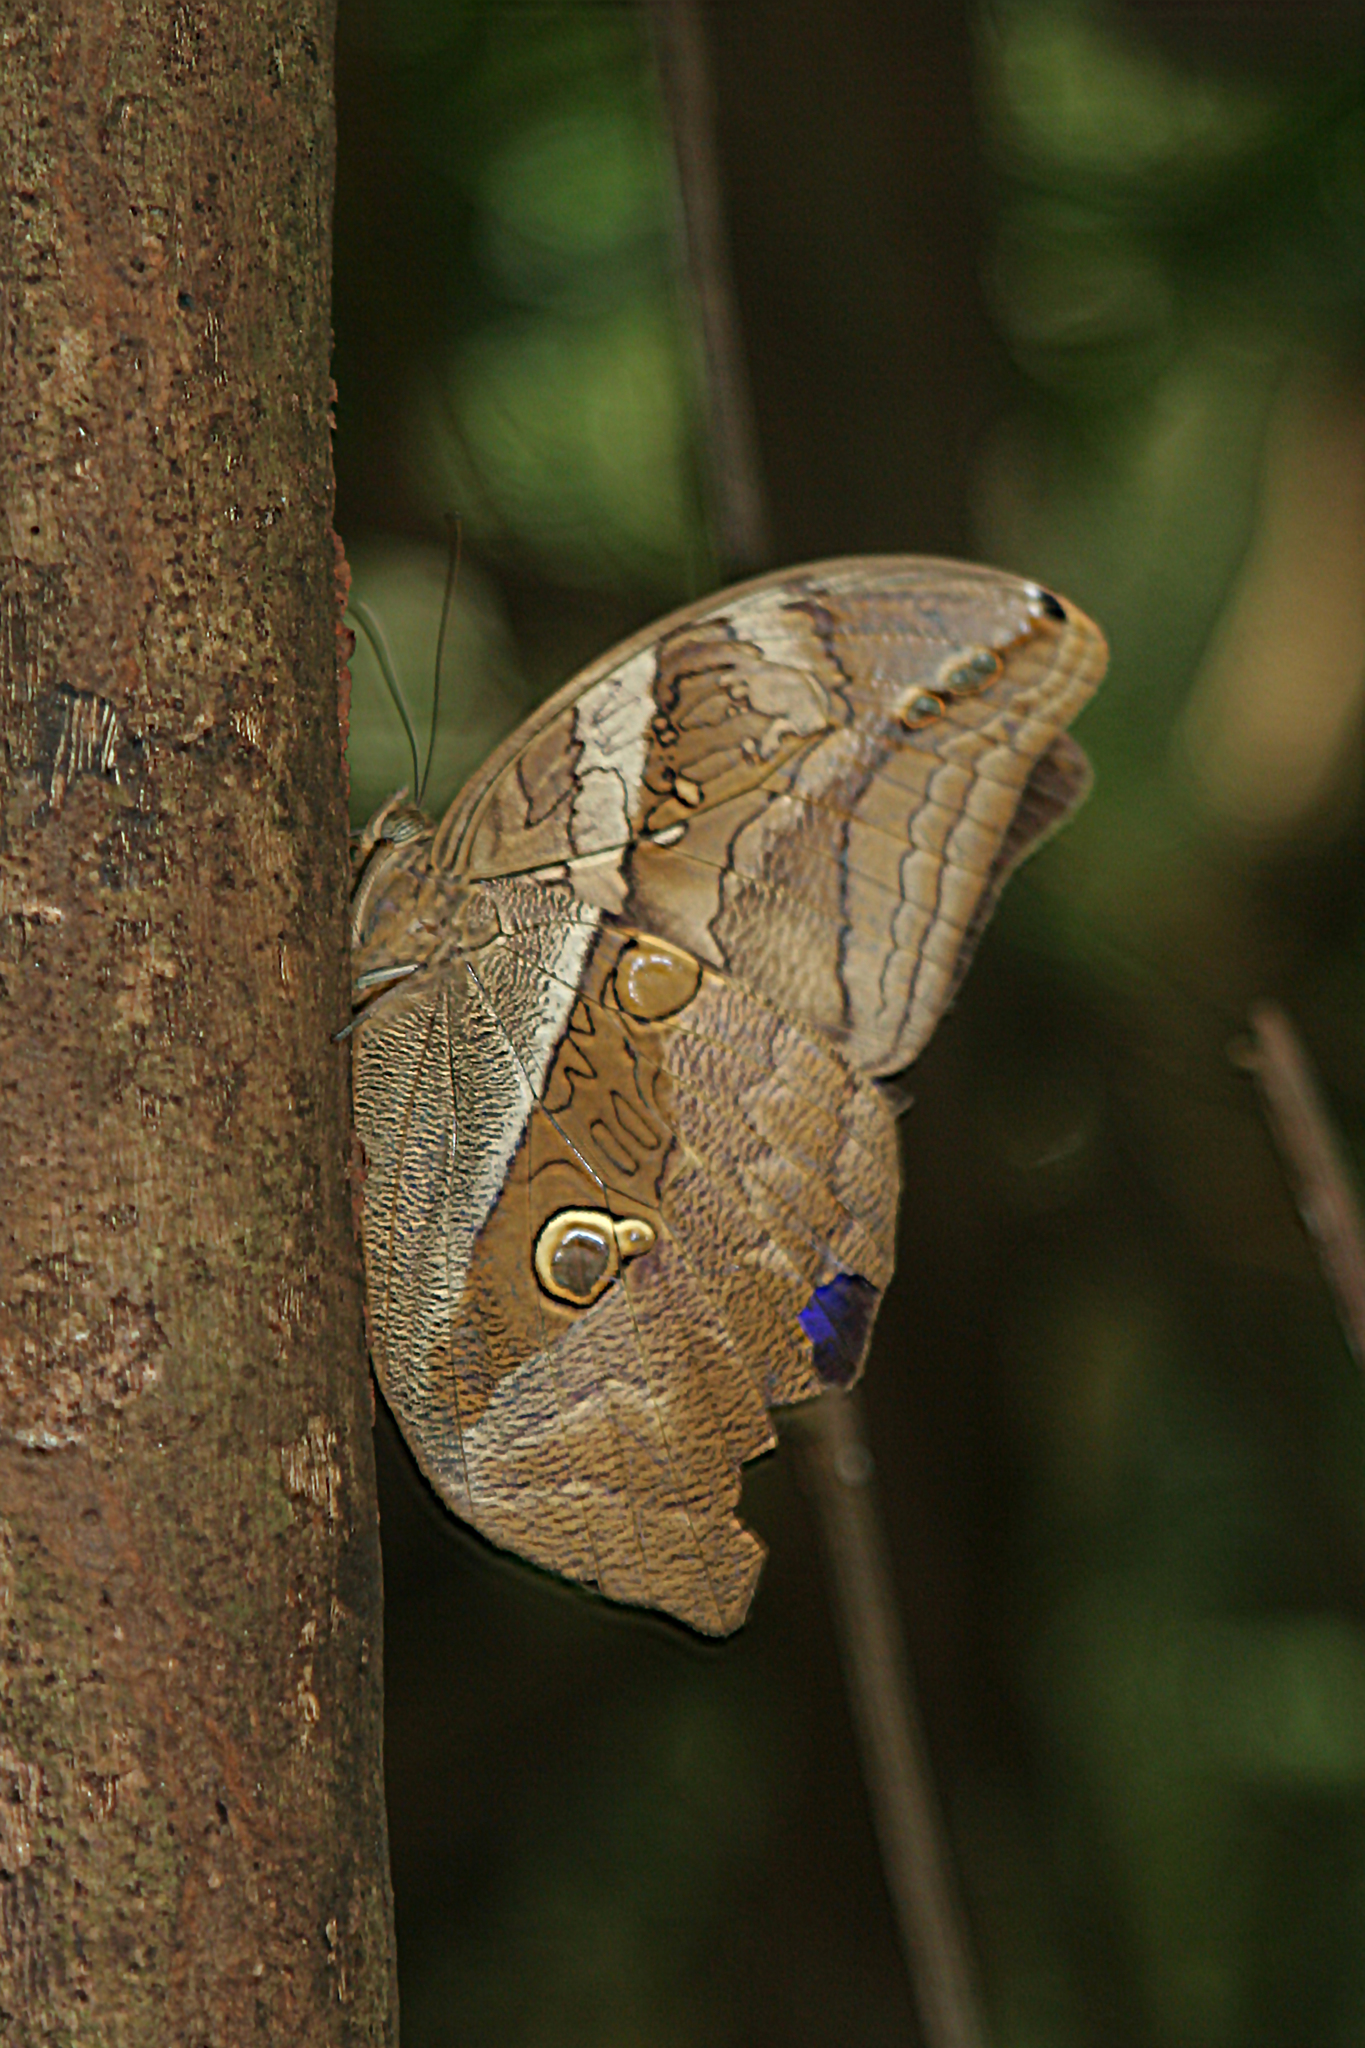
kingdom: Animalia
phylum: Arthropoda
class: Insecta
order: Lepidoptera
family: Nymphalidae
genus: Eryphanis
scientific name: Eryphanis polyxena
